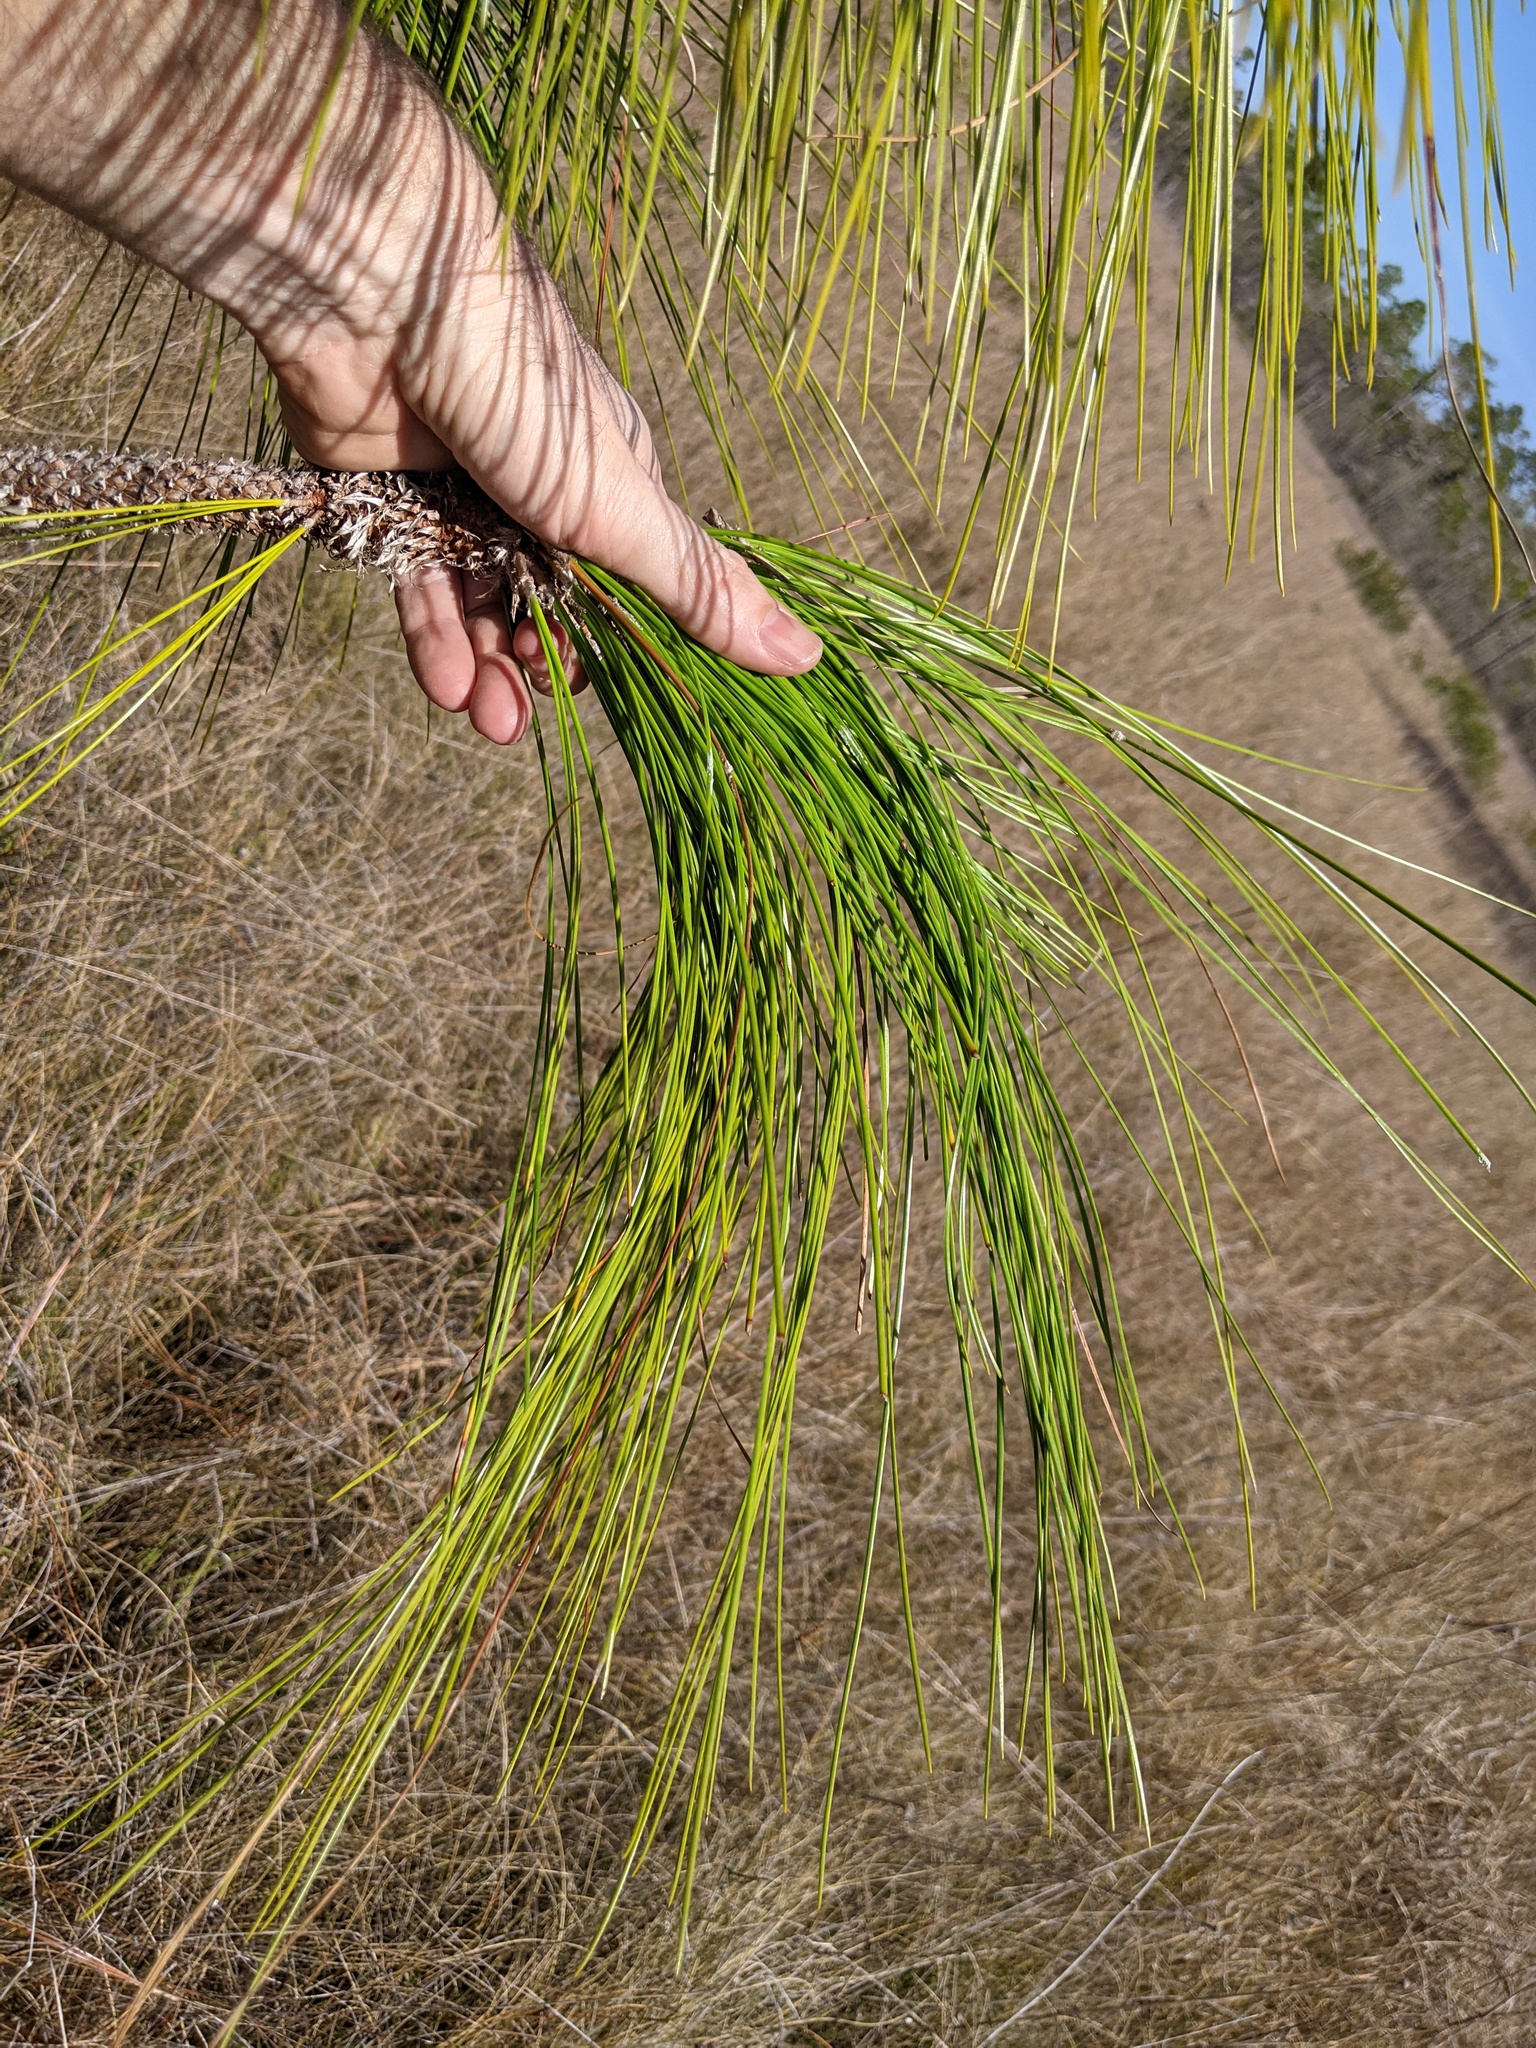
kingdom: Plantae
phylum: Tracheophyta
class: Pinopsida
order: Pinales
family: Pinaceae
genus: Pinus
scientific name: Pinus palustris
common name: Longleaf pine
